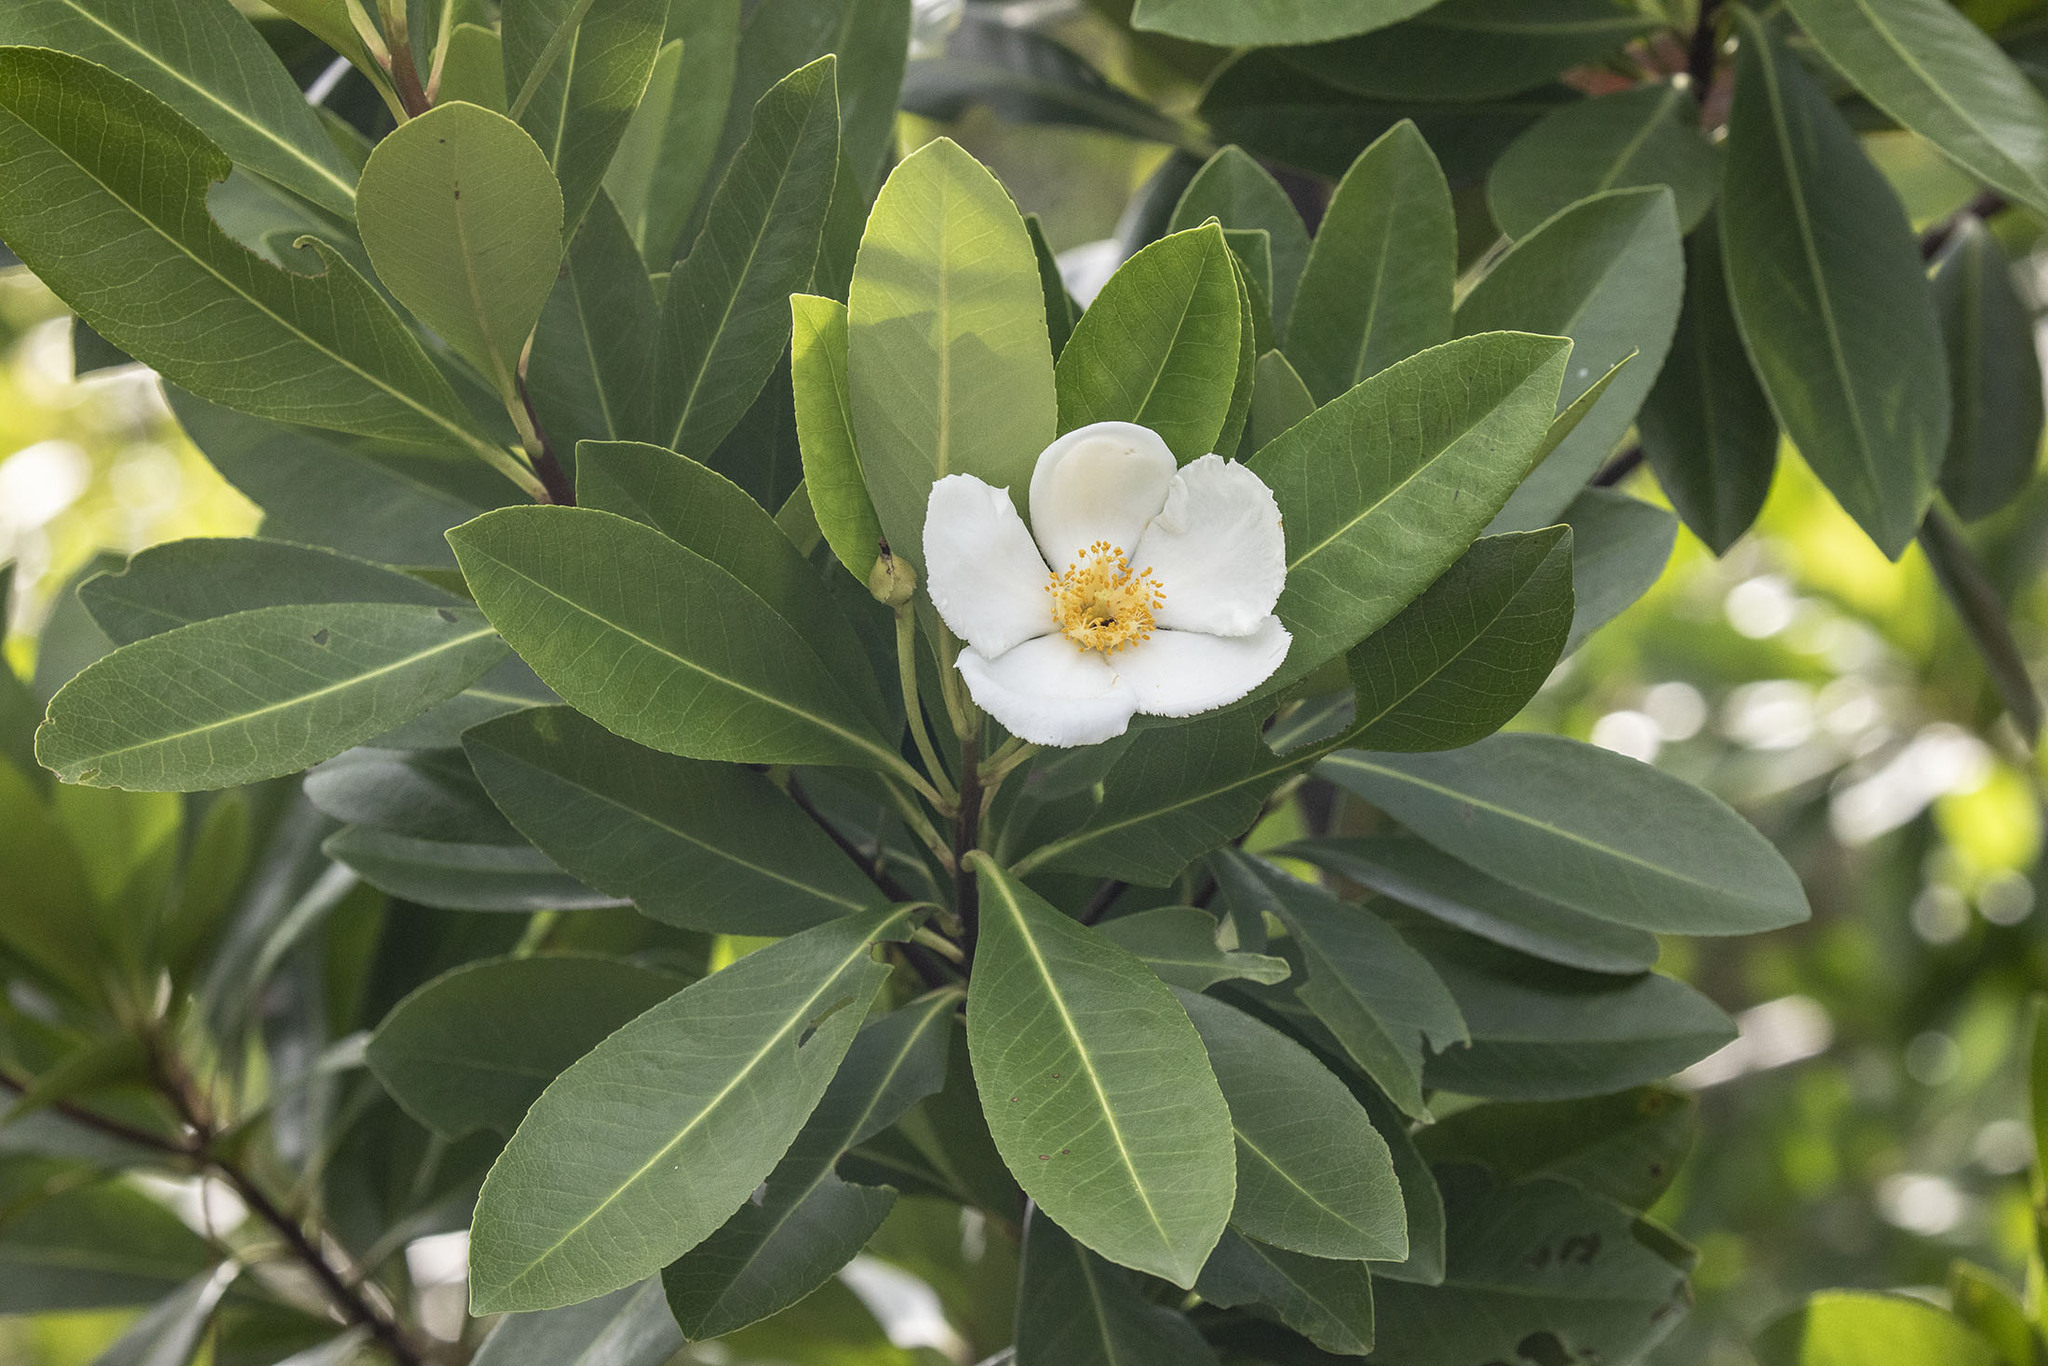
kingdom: Plantae
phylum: Tracheophyta
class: Magnoliopsida
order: Ericales
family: Theaceae
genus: Gordonia
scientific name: Gordonia lasianthus
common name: Loblolly bay
